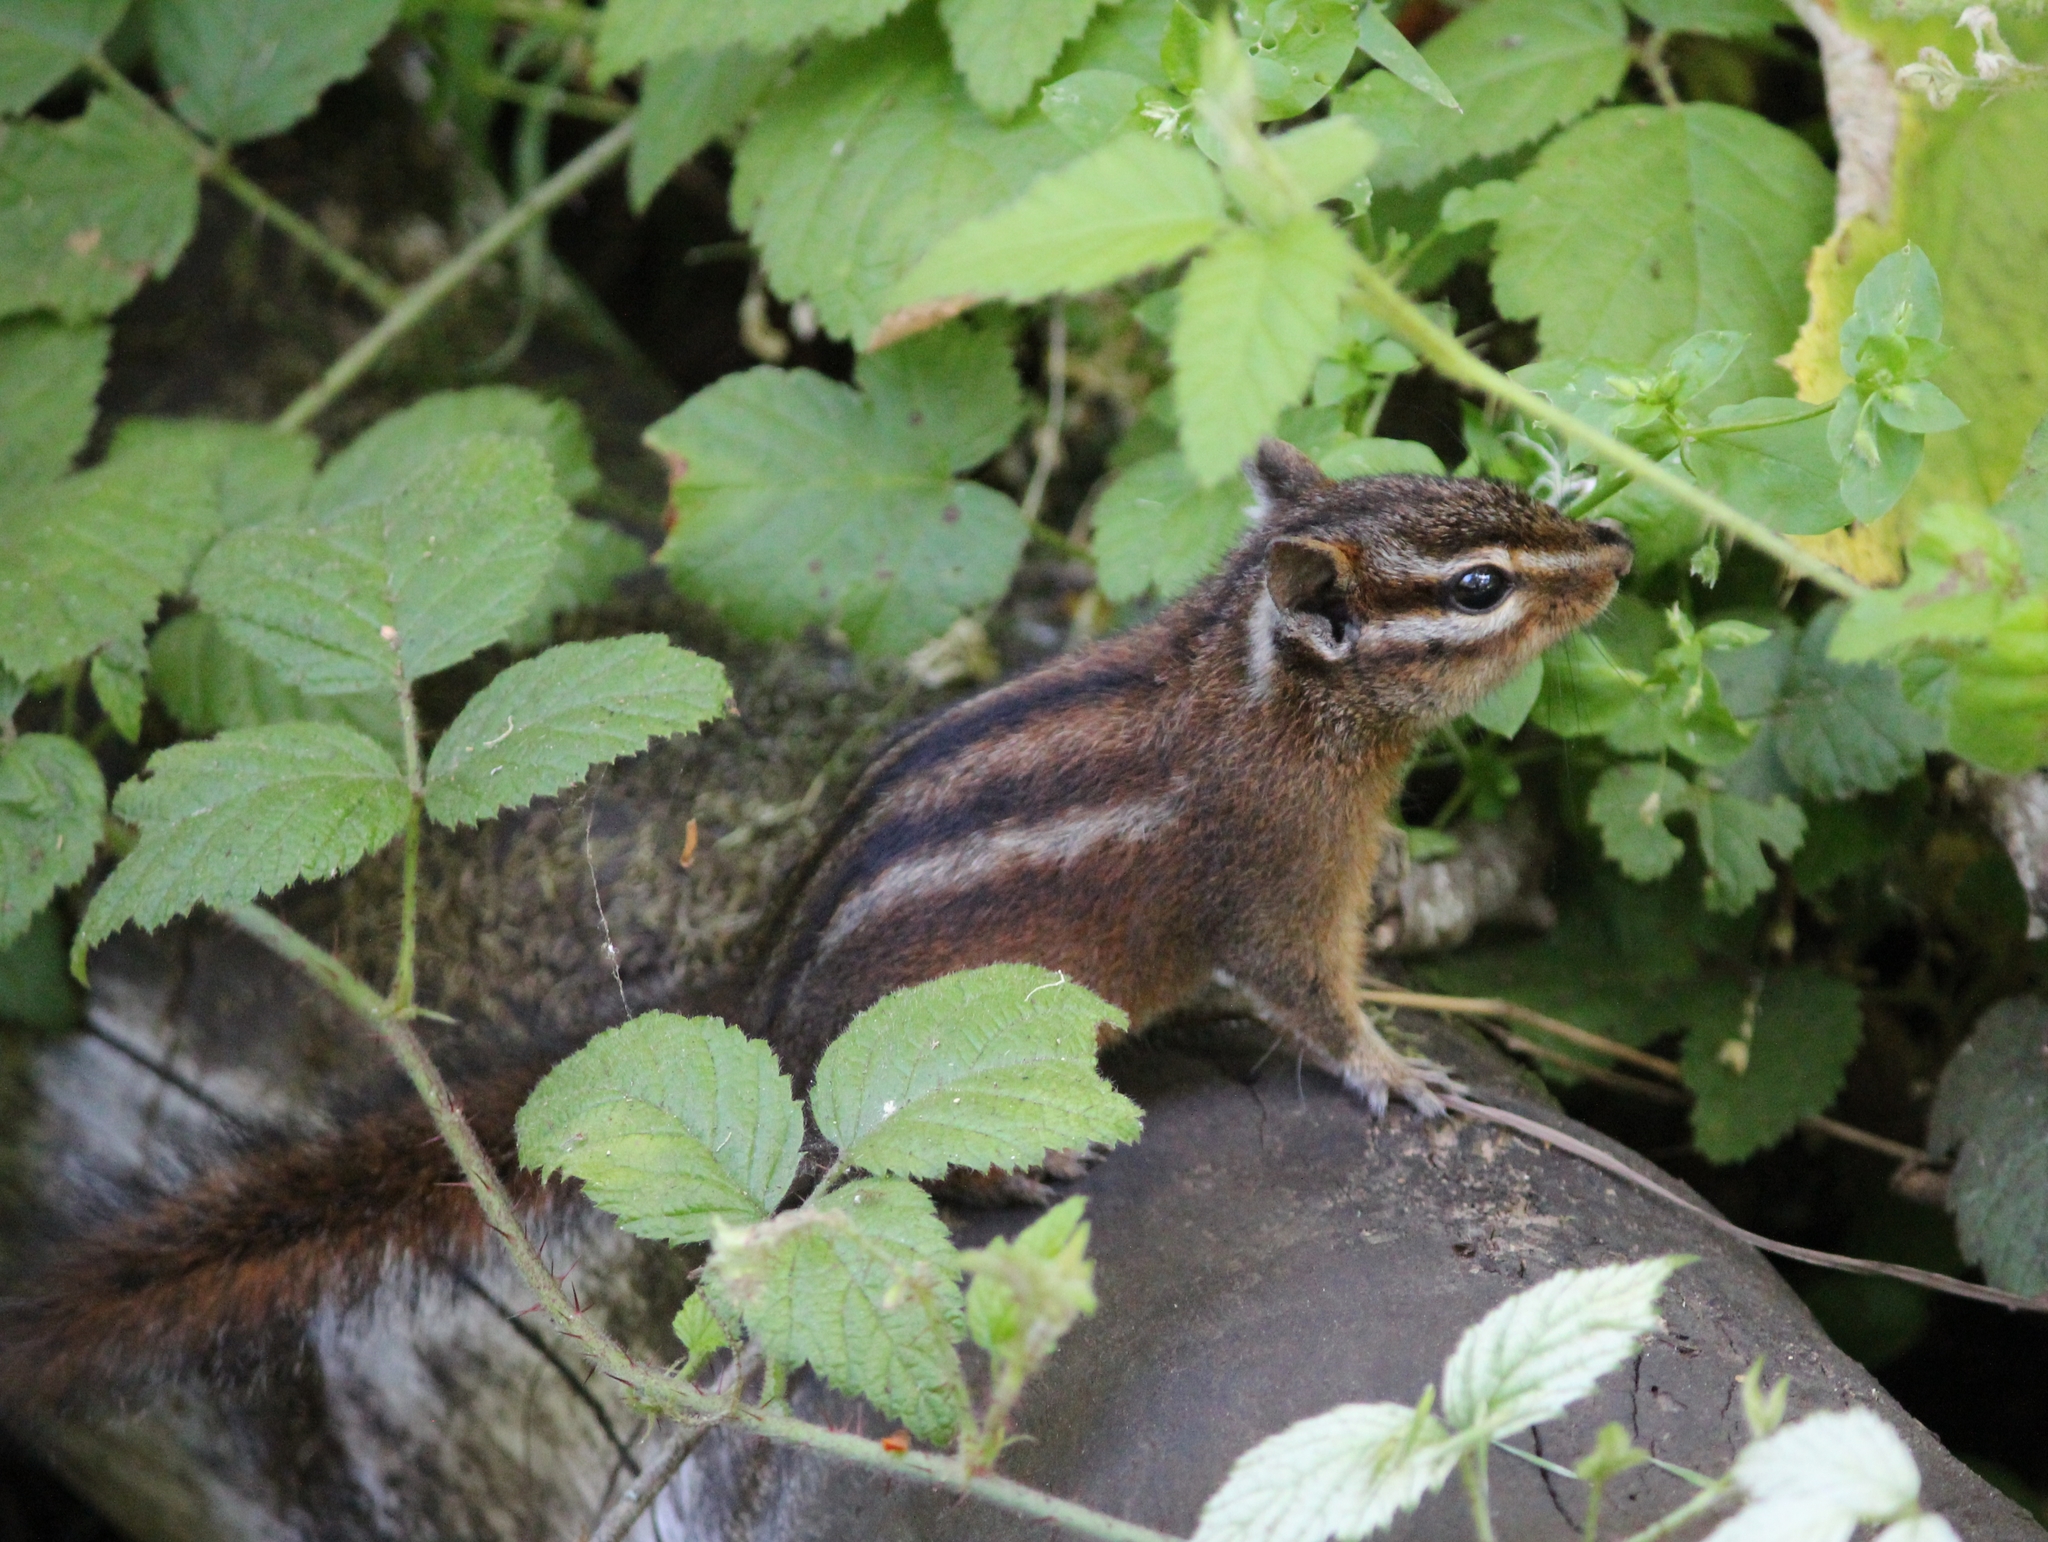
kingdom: Animalia
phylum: Chordata
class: Mammalia
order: Rodentia
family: Sciuridae
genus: Tamias
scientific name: Tamias sonomae
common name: Sonoma chipmunk
